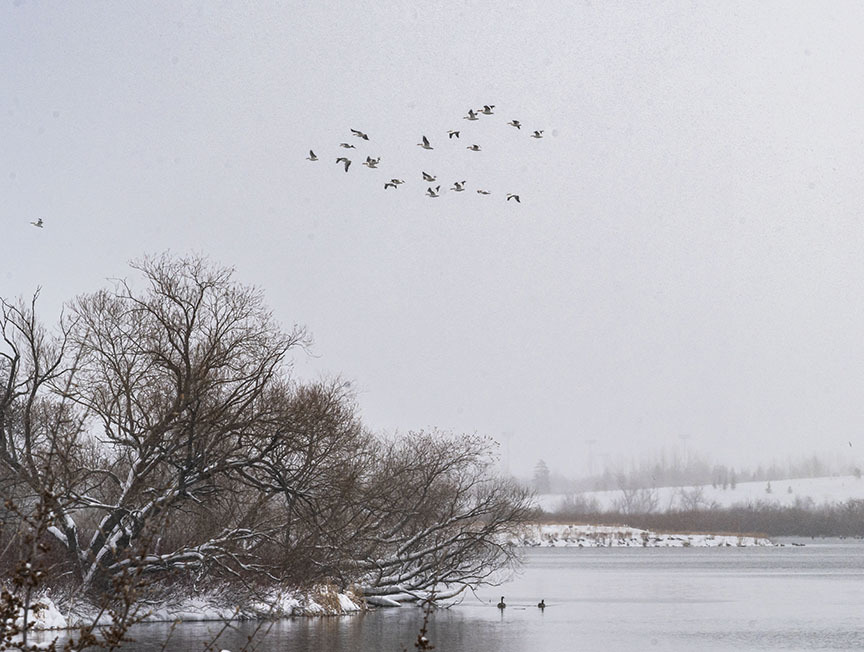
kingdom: Animalia
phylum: Chordata
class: Aves
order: Pelecaniformes
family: Pelecanidae
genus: Pelecanus
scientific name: Pelecanus erythrorhynchos
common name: American white pelican
